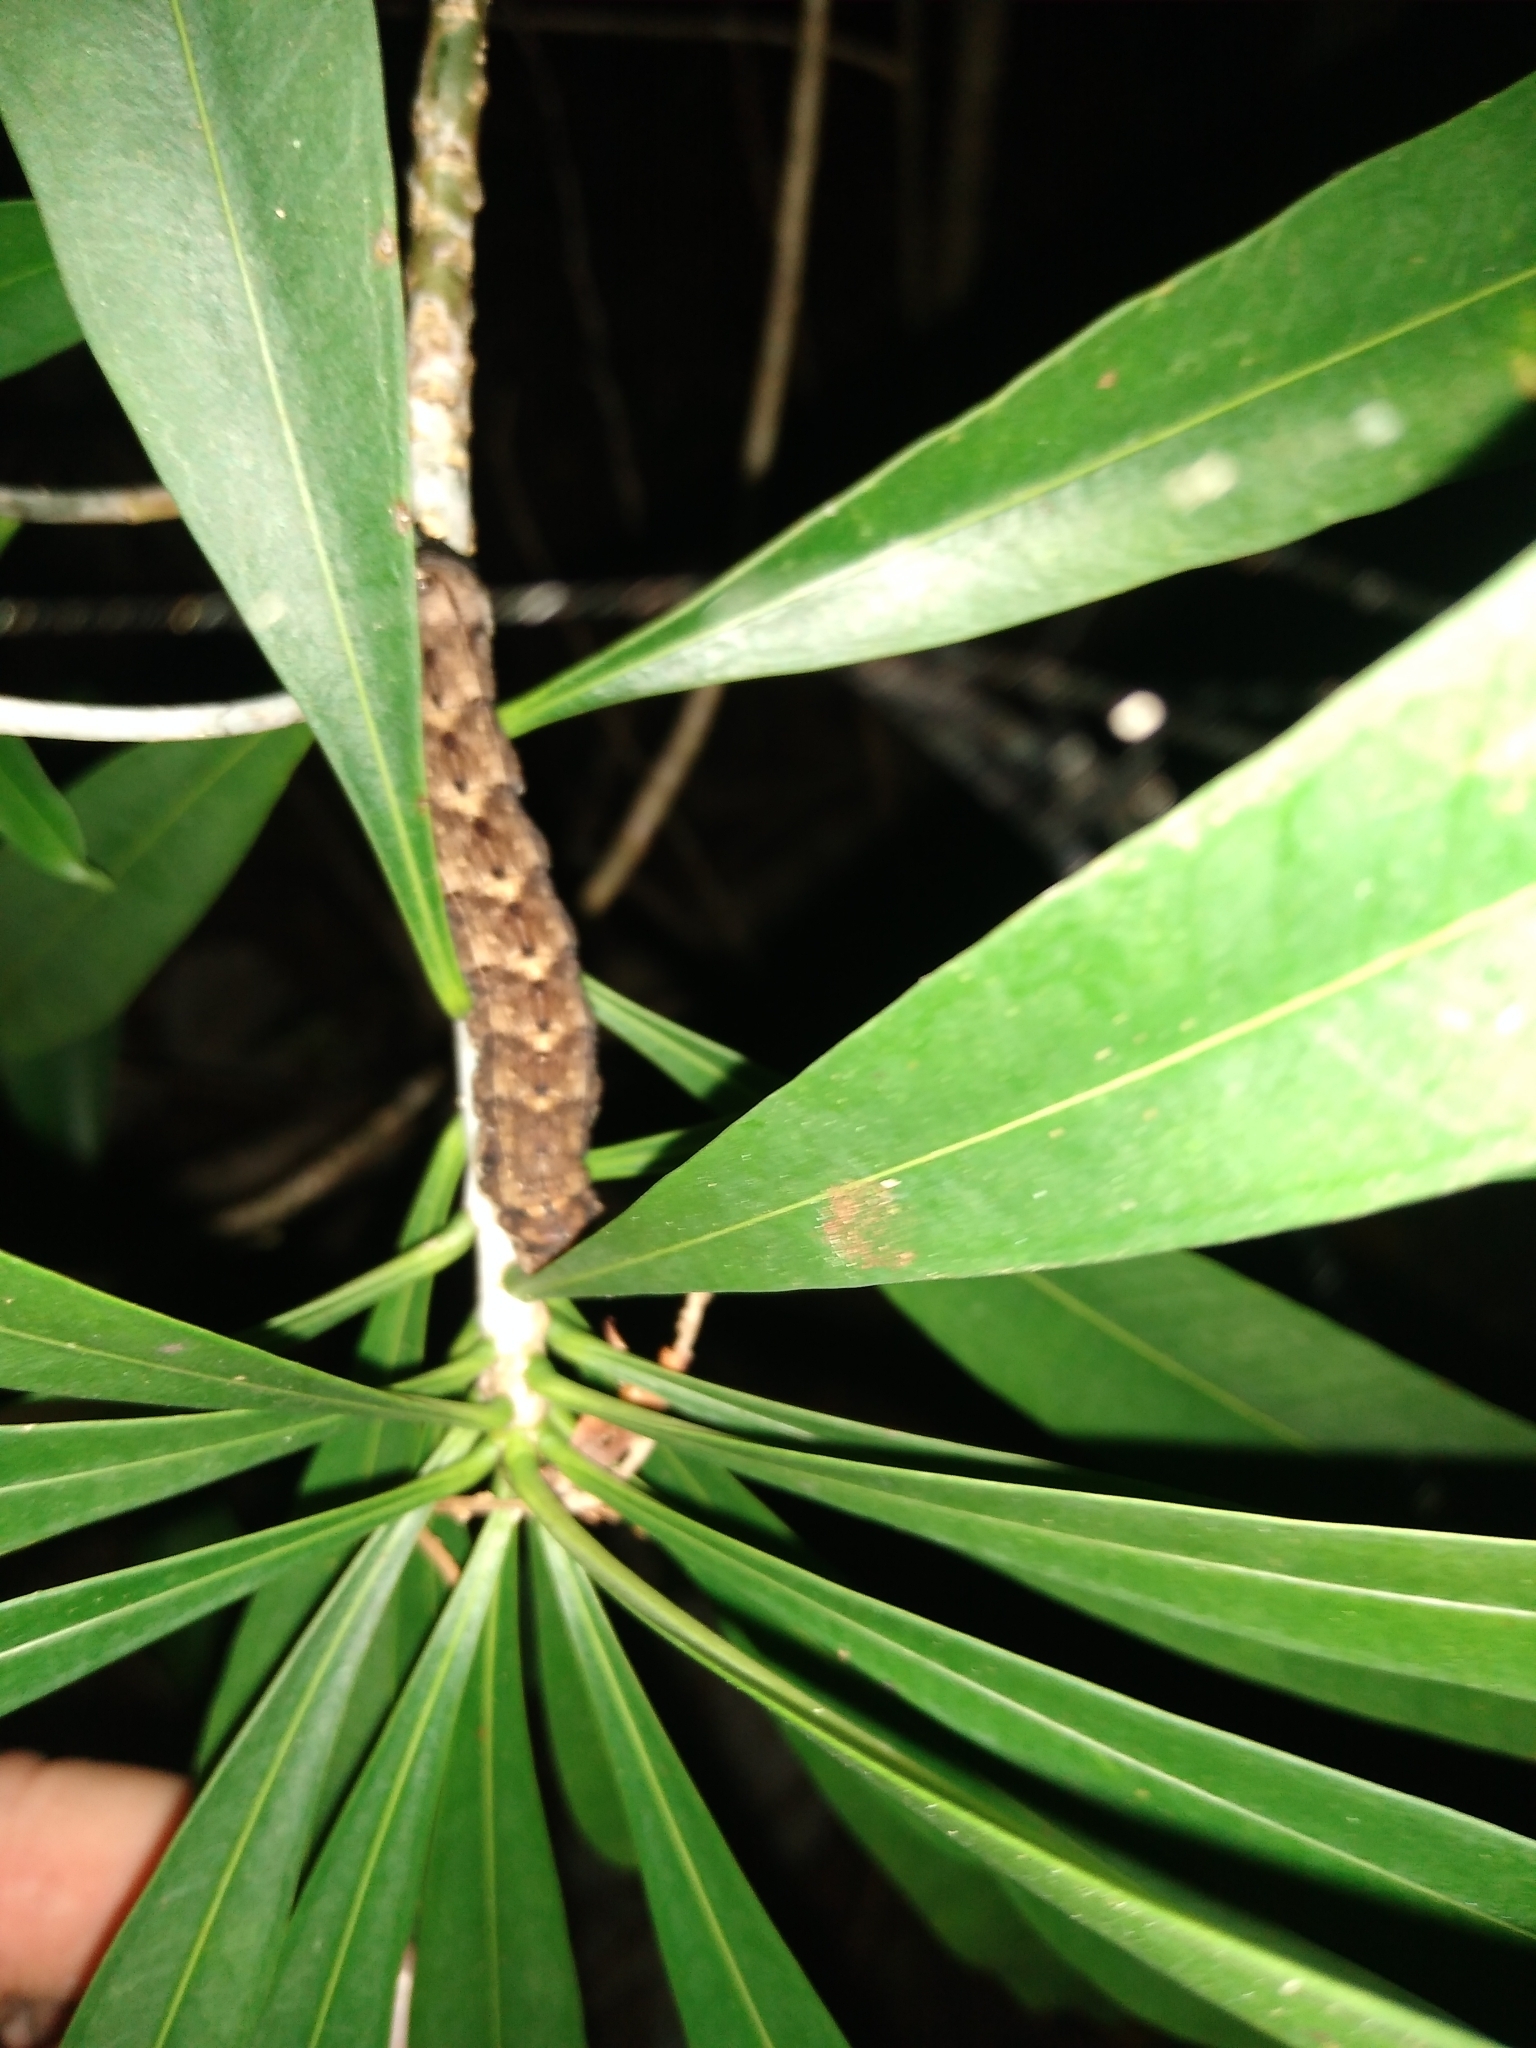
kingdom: Animalia
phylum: Arthropoda
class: Insecta
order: Lepidoptera
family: Sphingidae
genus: Erinnyis
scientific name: Erinnyis yucatana
